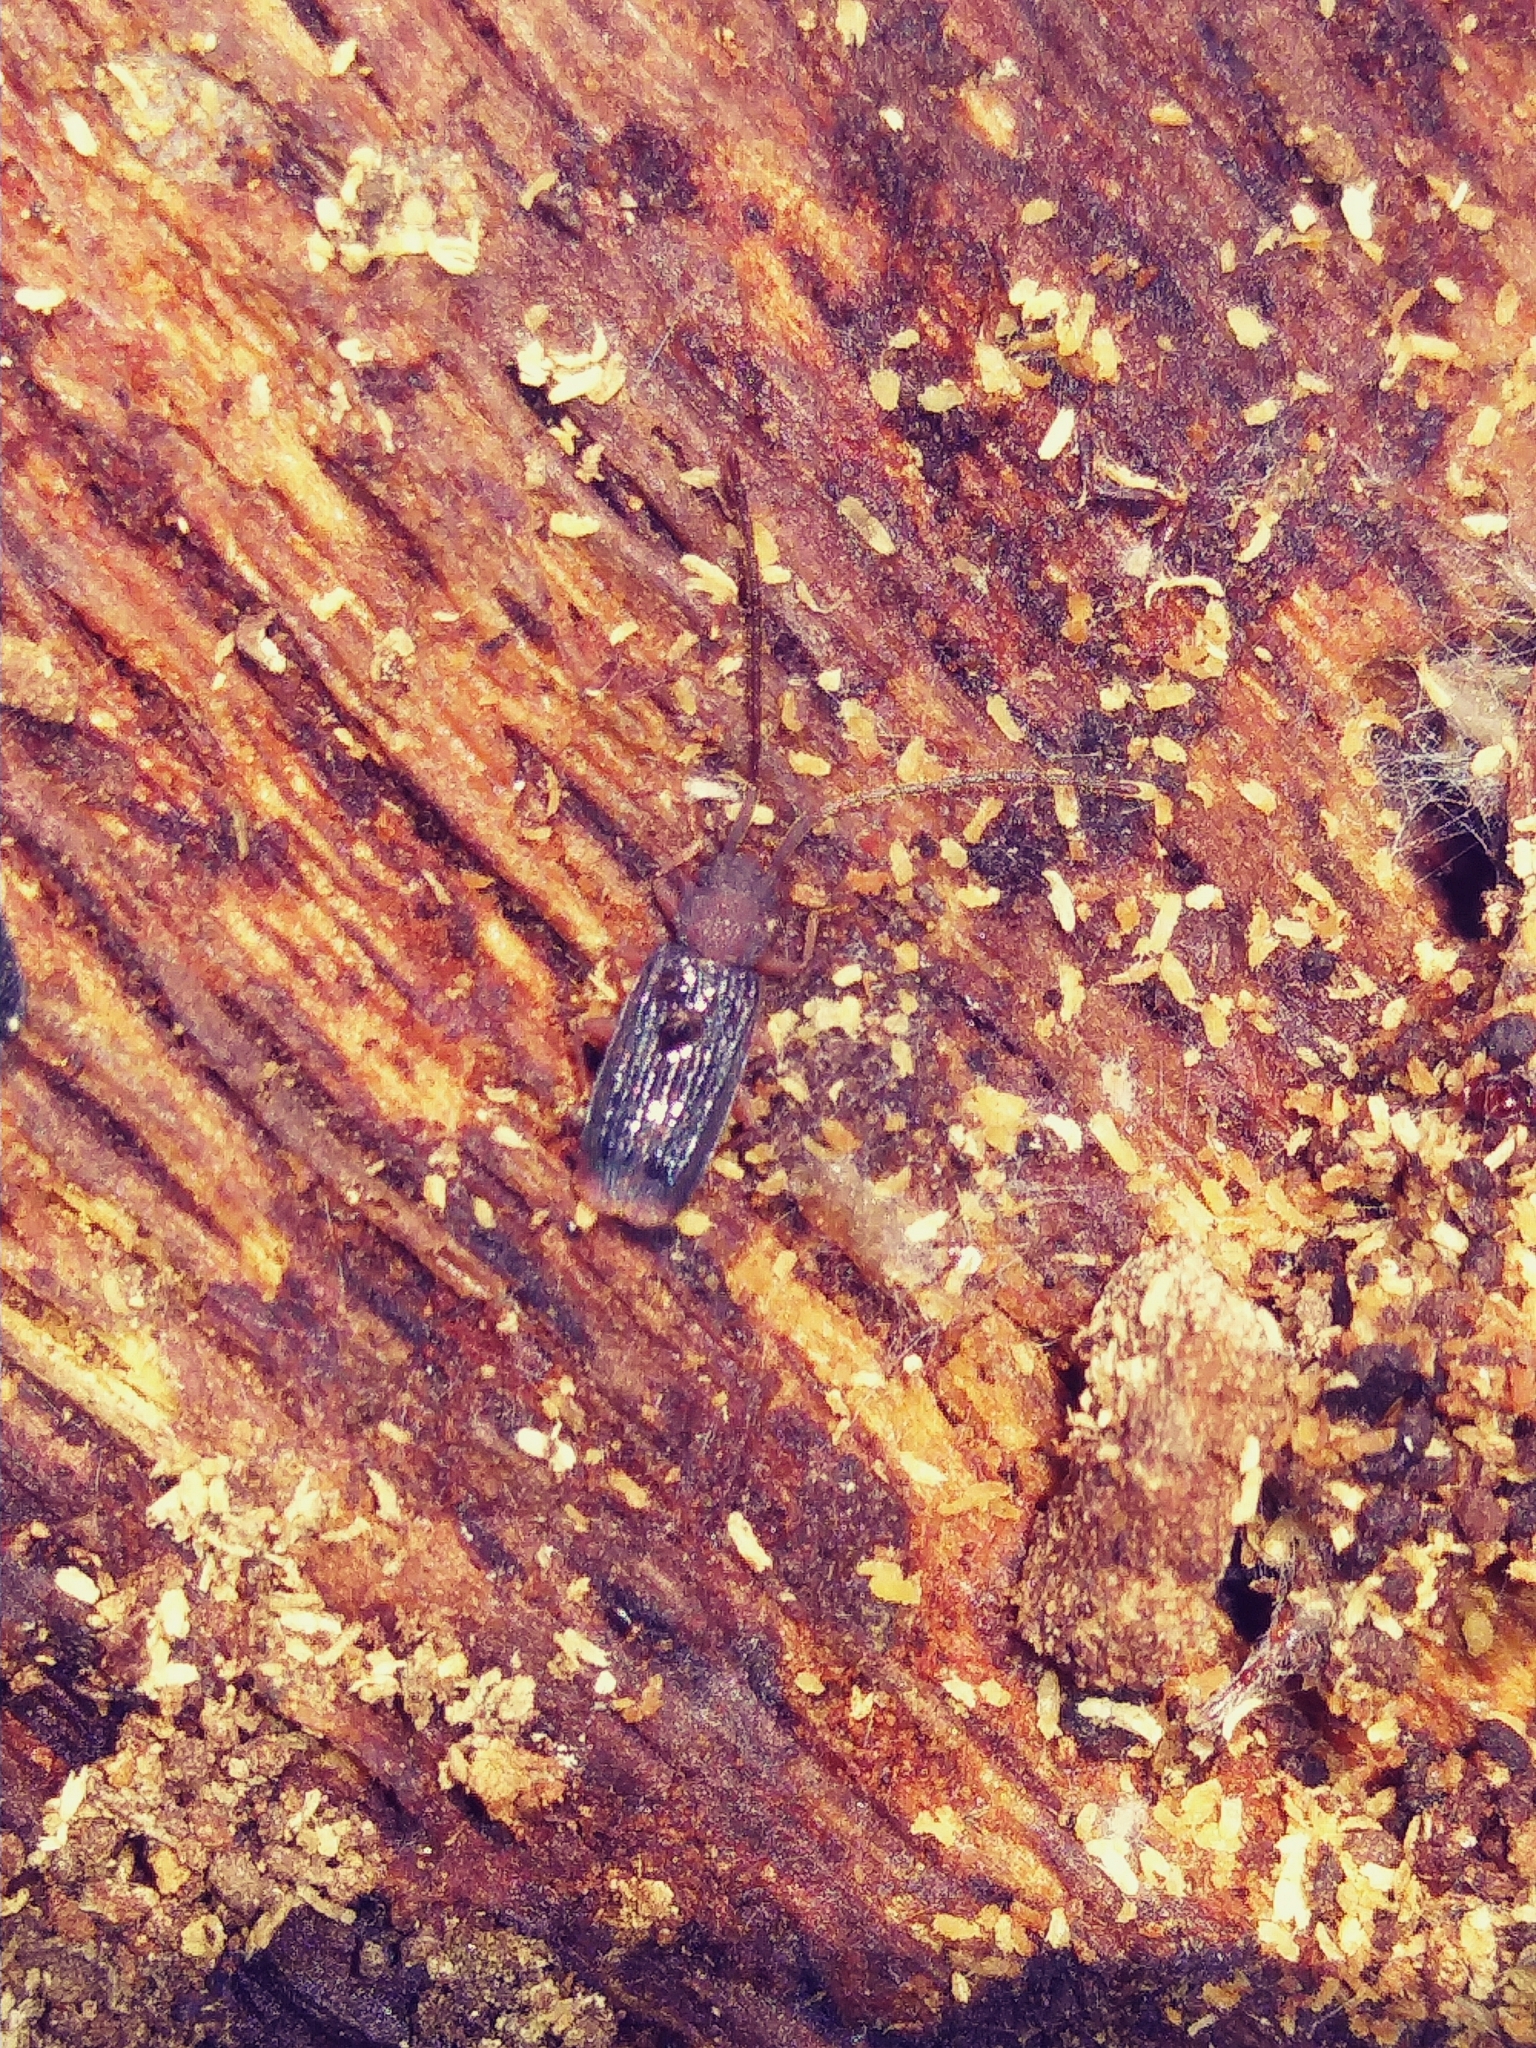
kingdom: Animalia
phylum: Arthropoda
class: Insecta
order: Coleoptera
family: Silvanidae
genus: Uleiota
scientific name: Uleiota dubia
